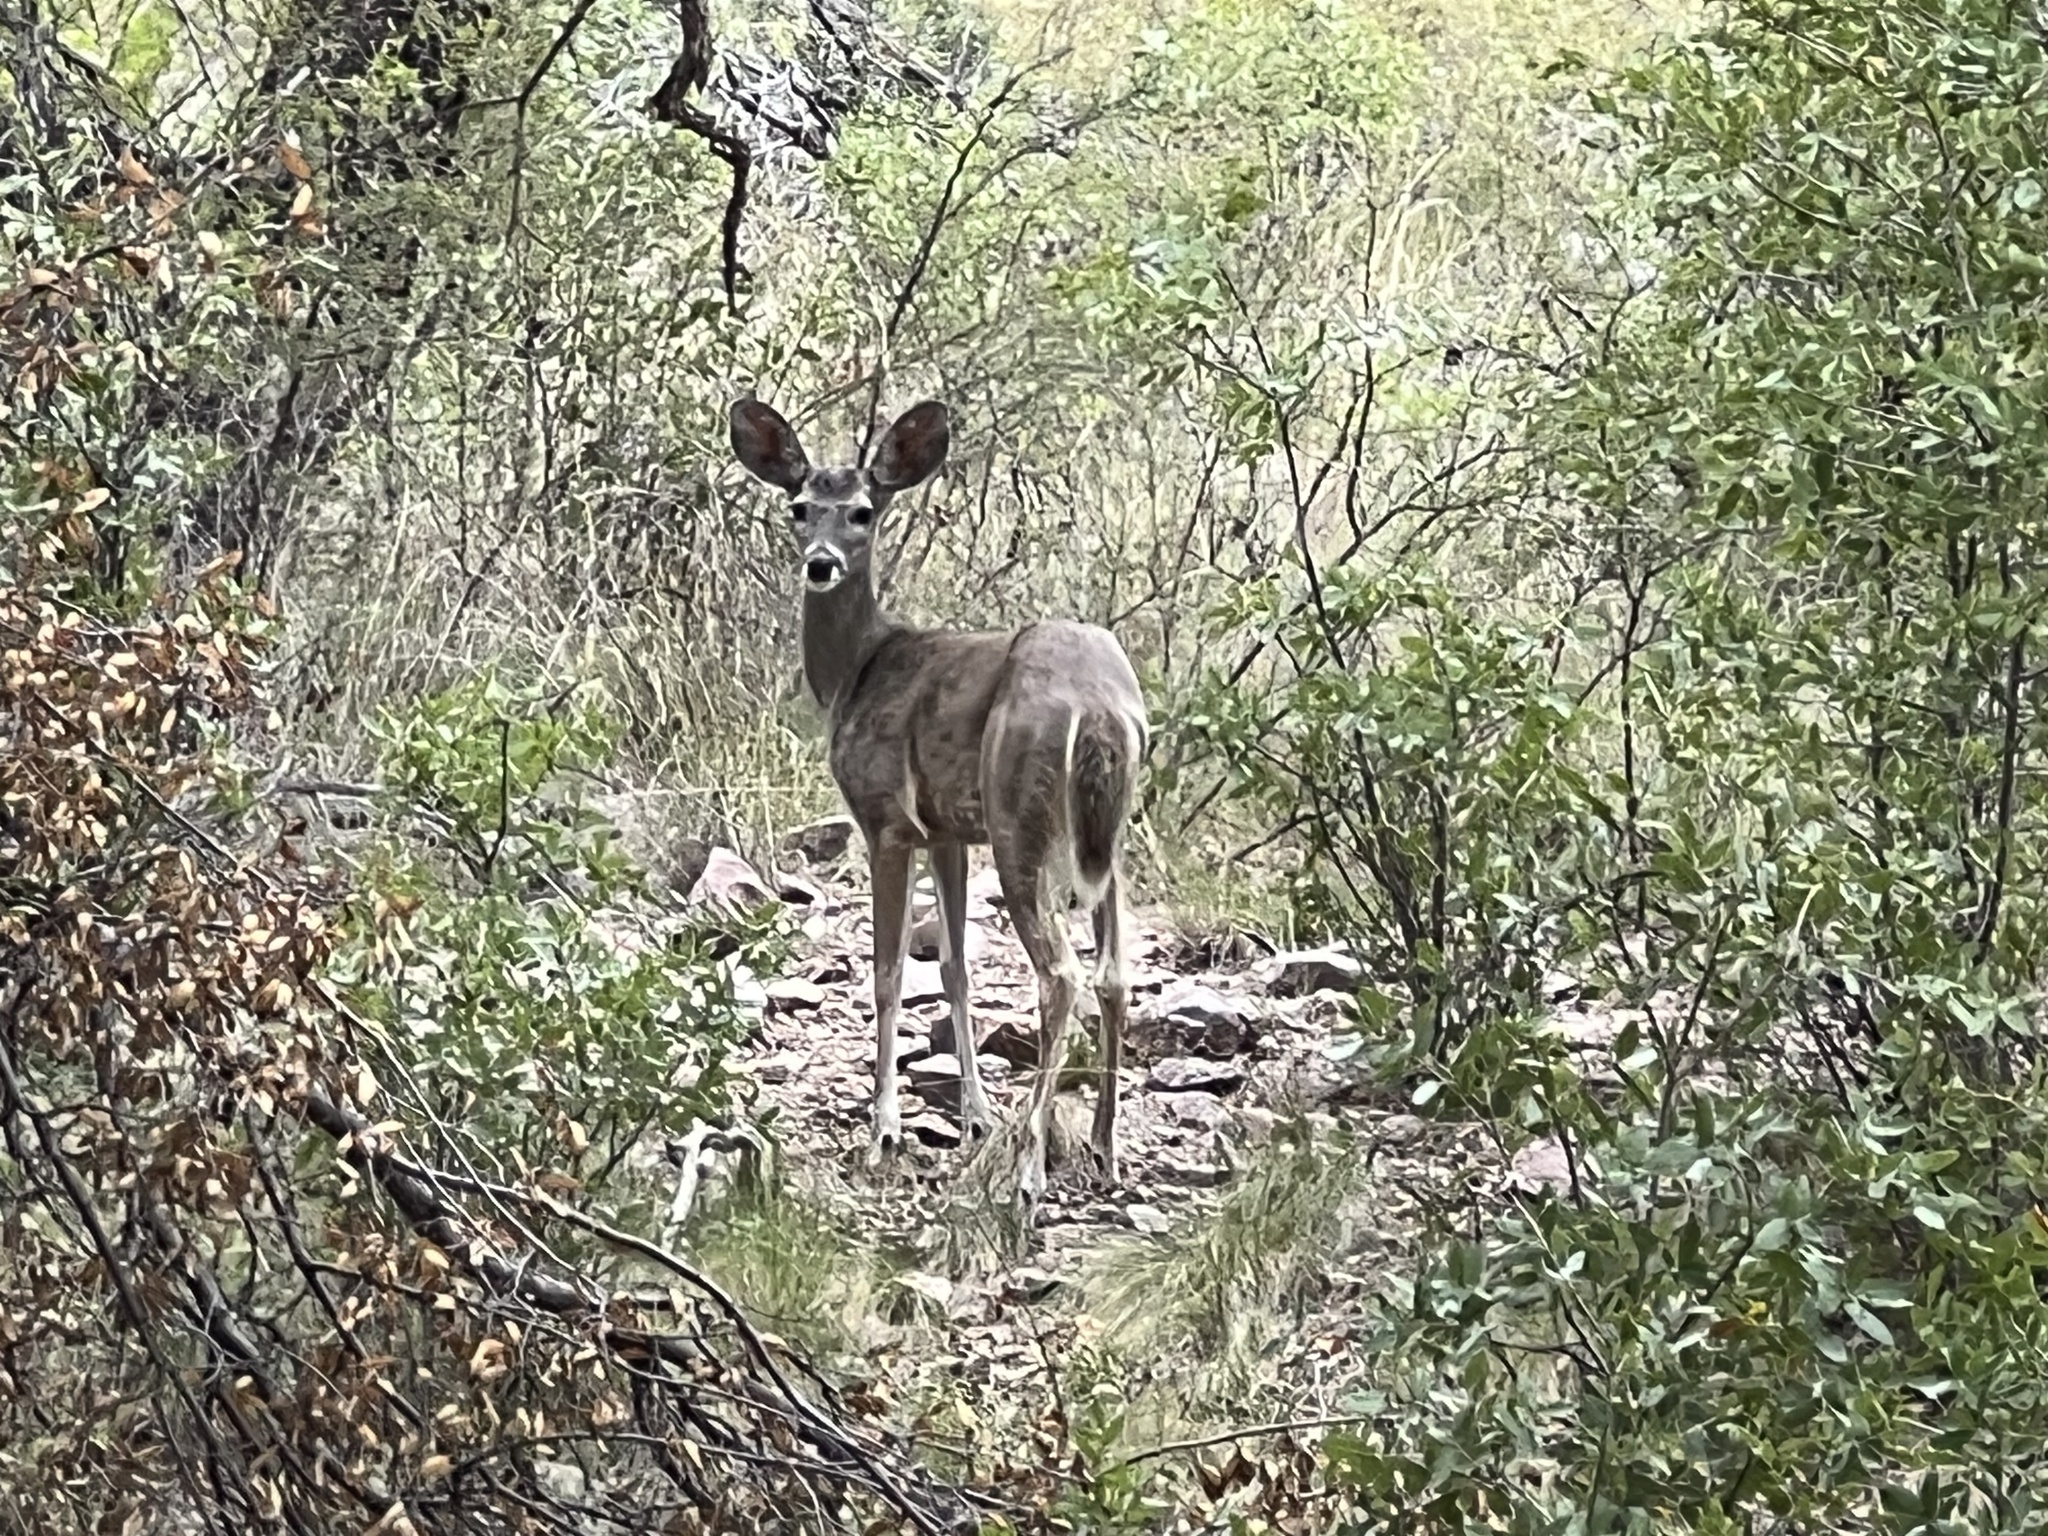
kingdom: Animalia
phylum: Chordata
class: Mammalia
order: Artiodactyla
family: Cervidae
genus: Odocoileus
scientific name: Odocoileus virginianus
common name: White-tailed deer
